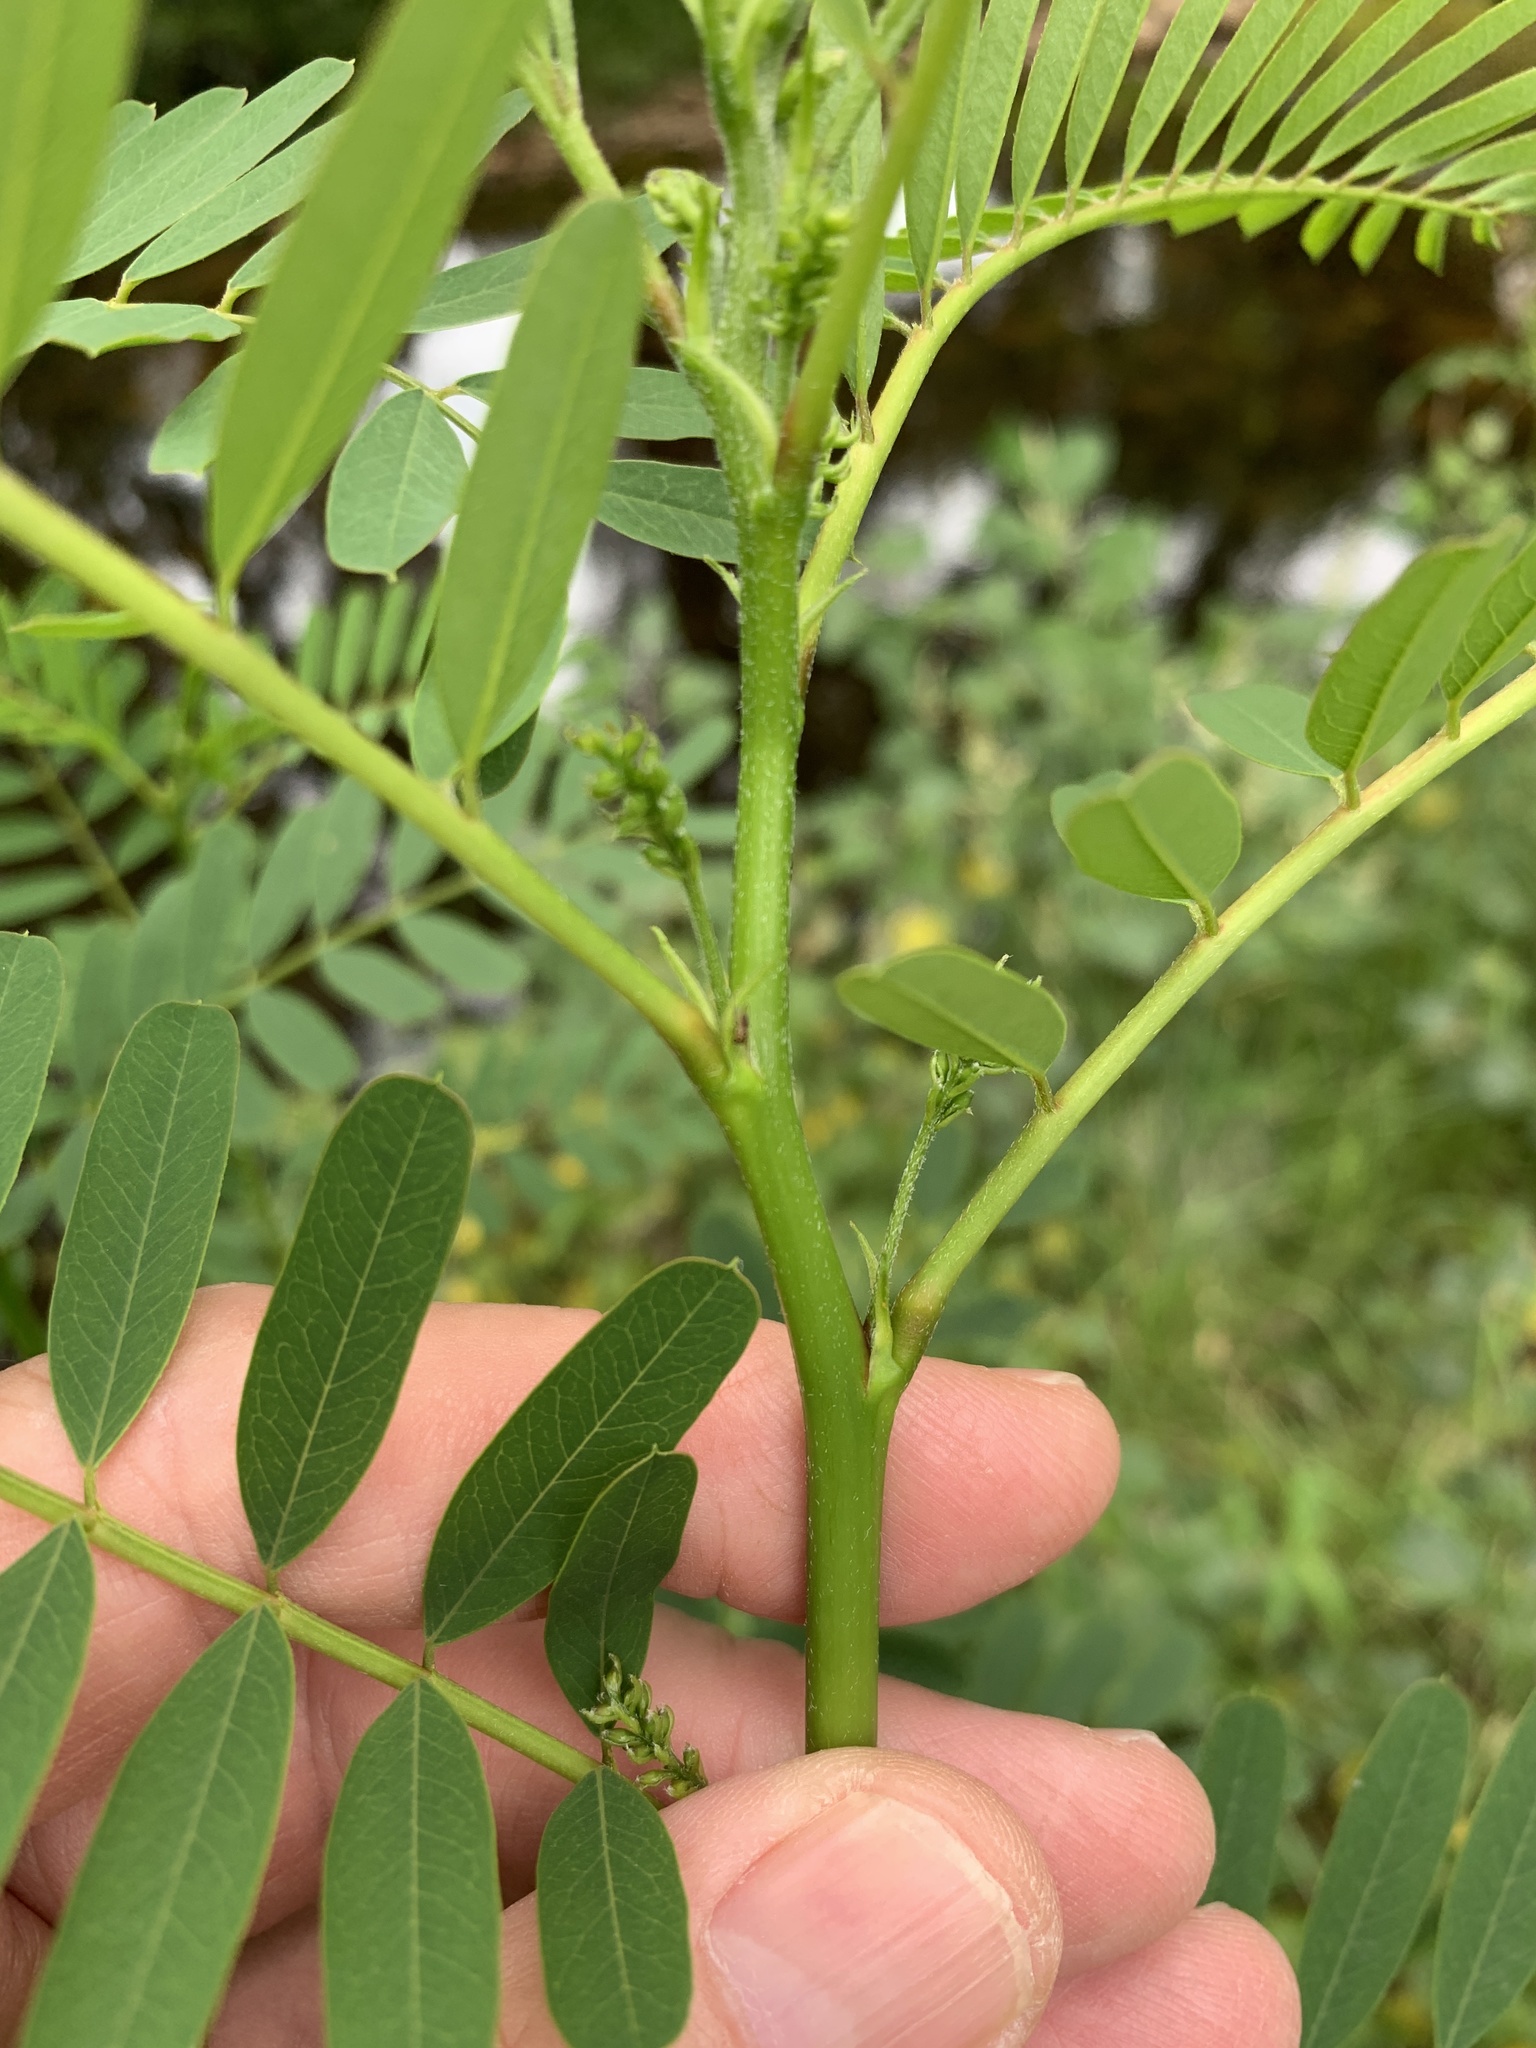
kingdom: Plantae
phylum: Tracheophyta
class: Magnoliopsida
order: Fabales
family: Fabaceae
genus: Sesbania
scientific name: Sesbania punicea
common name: Rattlebox
